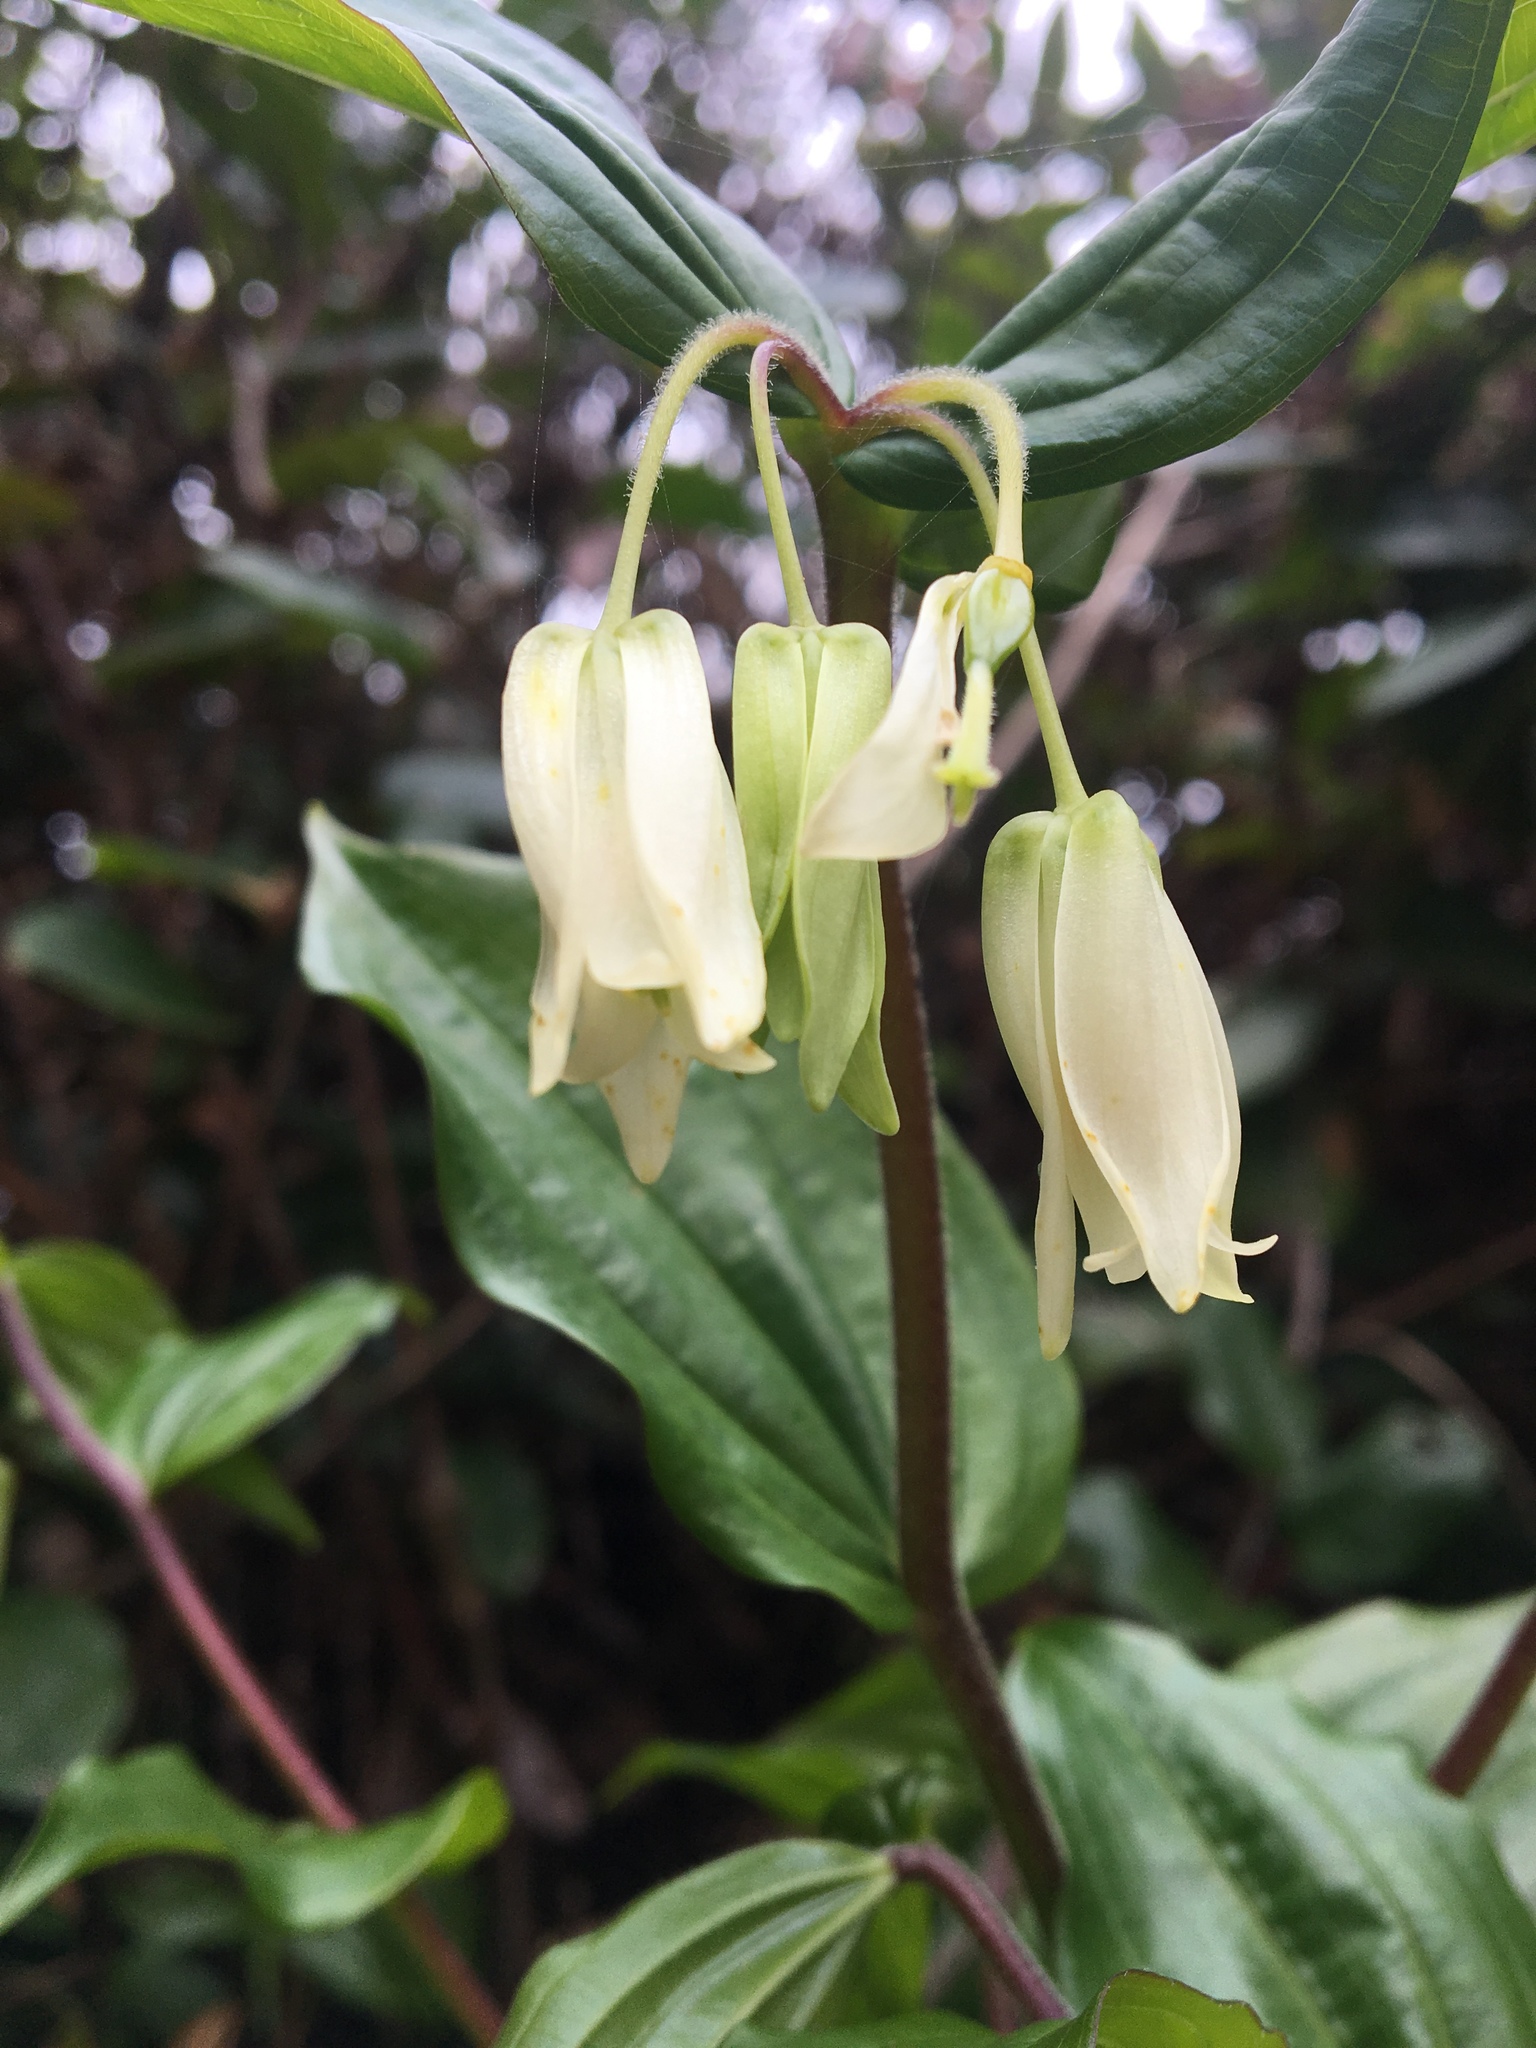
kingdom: Plantae
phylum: Tracheophyta
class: Liliopsida
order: Liliales
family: Liliaceae
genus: Prosartes
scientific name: Prosartes smithii
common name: Fairy-lantern
